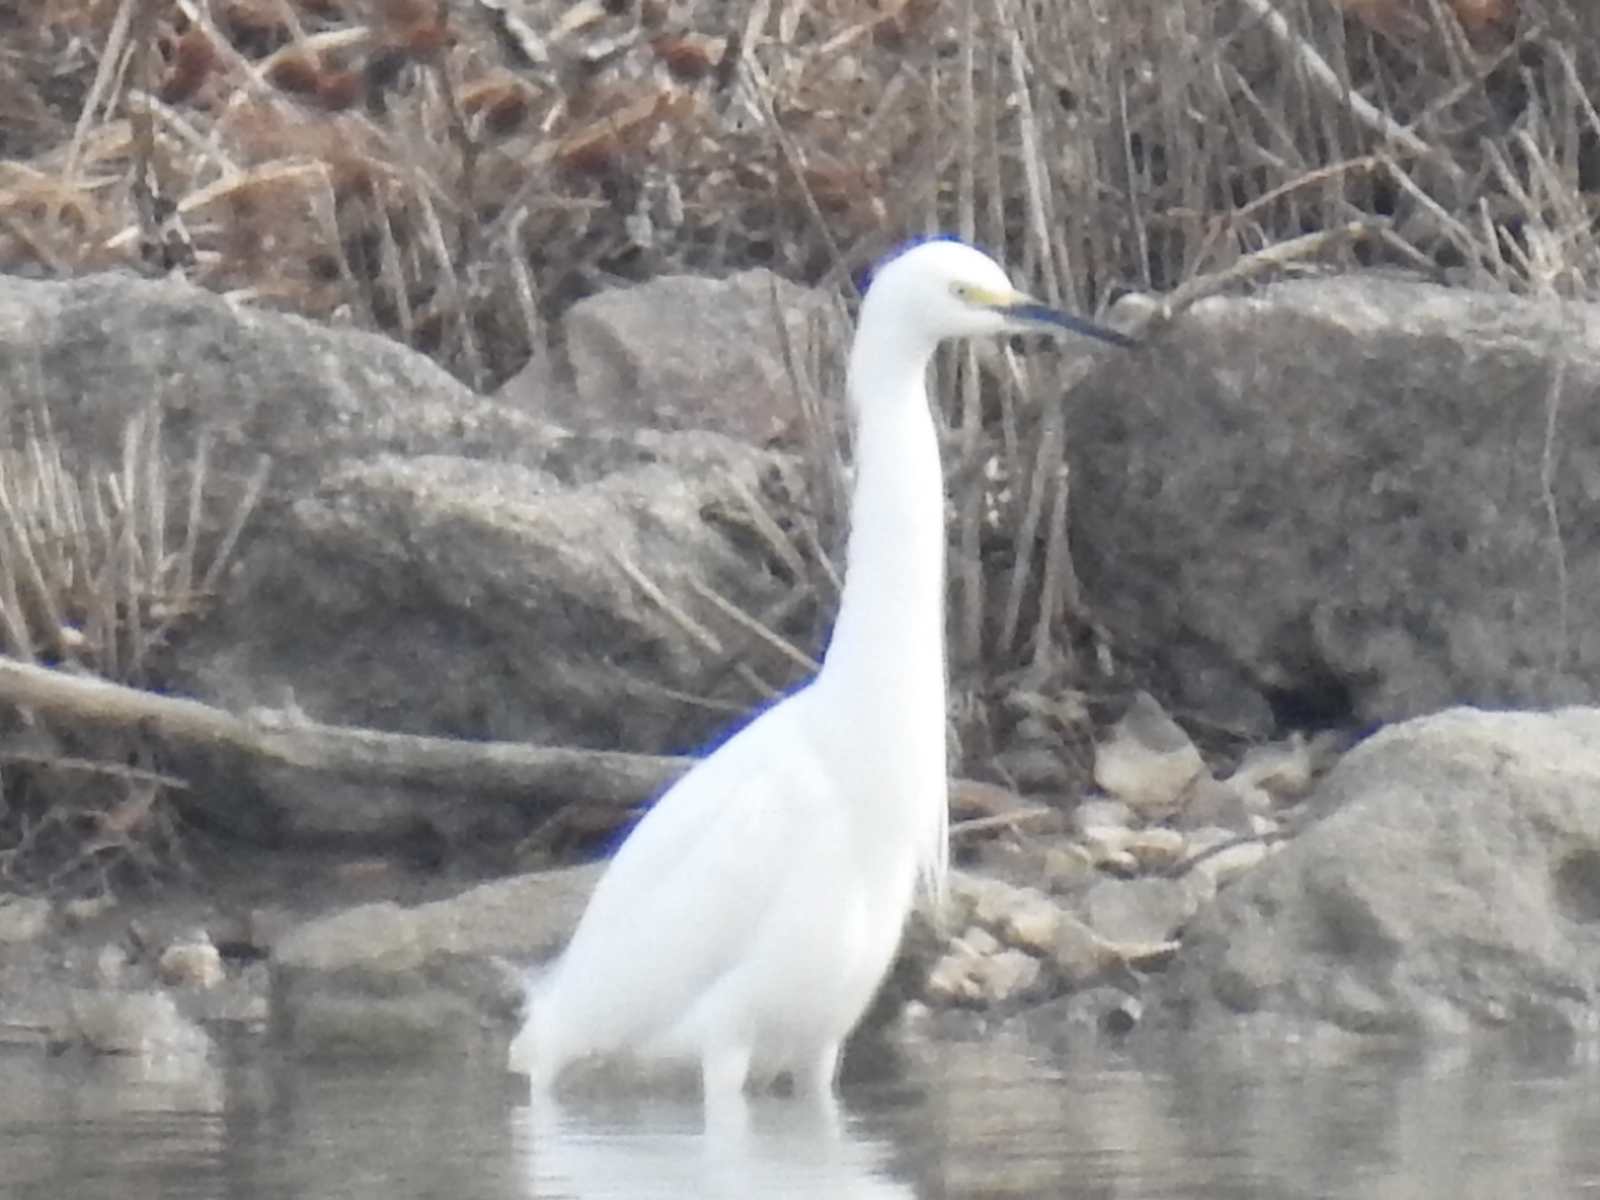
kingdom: Animalia
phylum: Chordata
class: Aves
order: Pelecaniformes
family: Ardeidae
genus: Egretta
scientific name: Egretta thula
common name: Snowy egret
